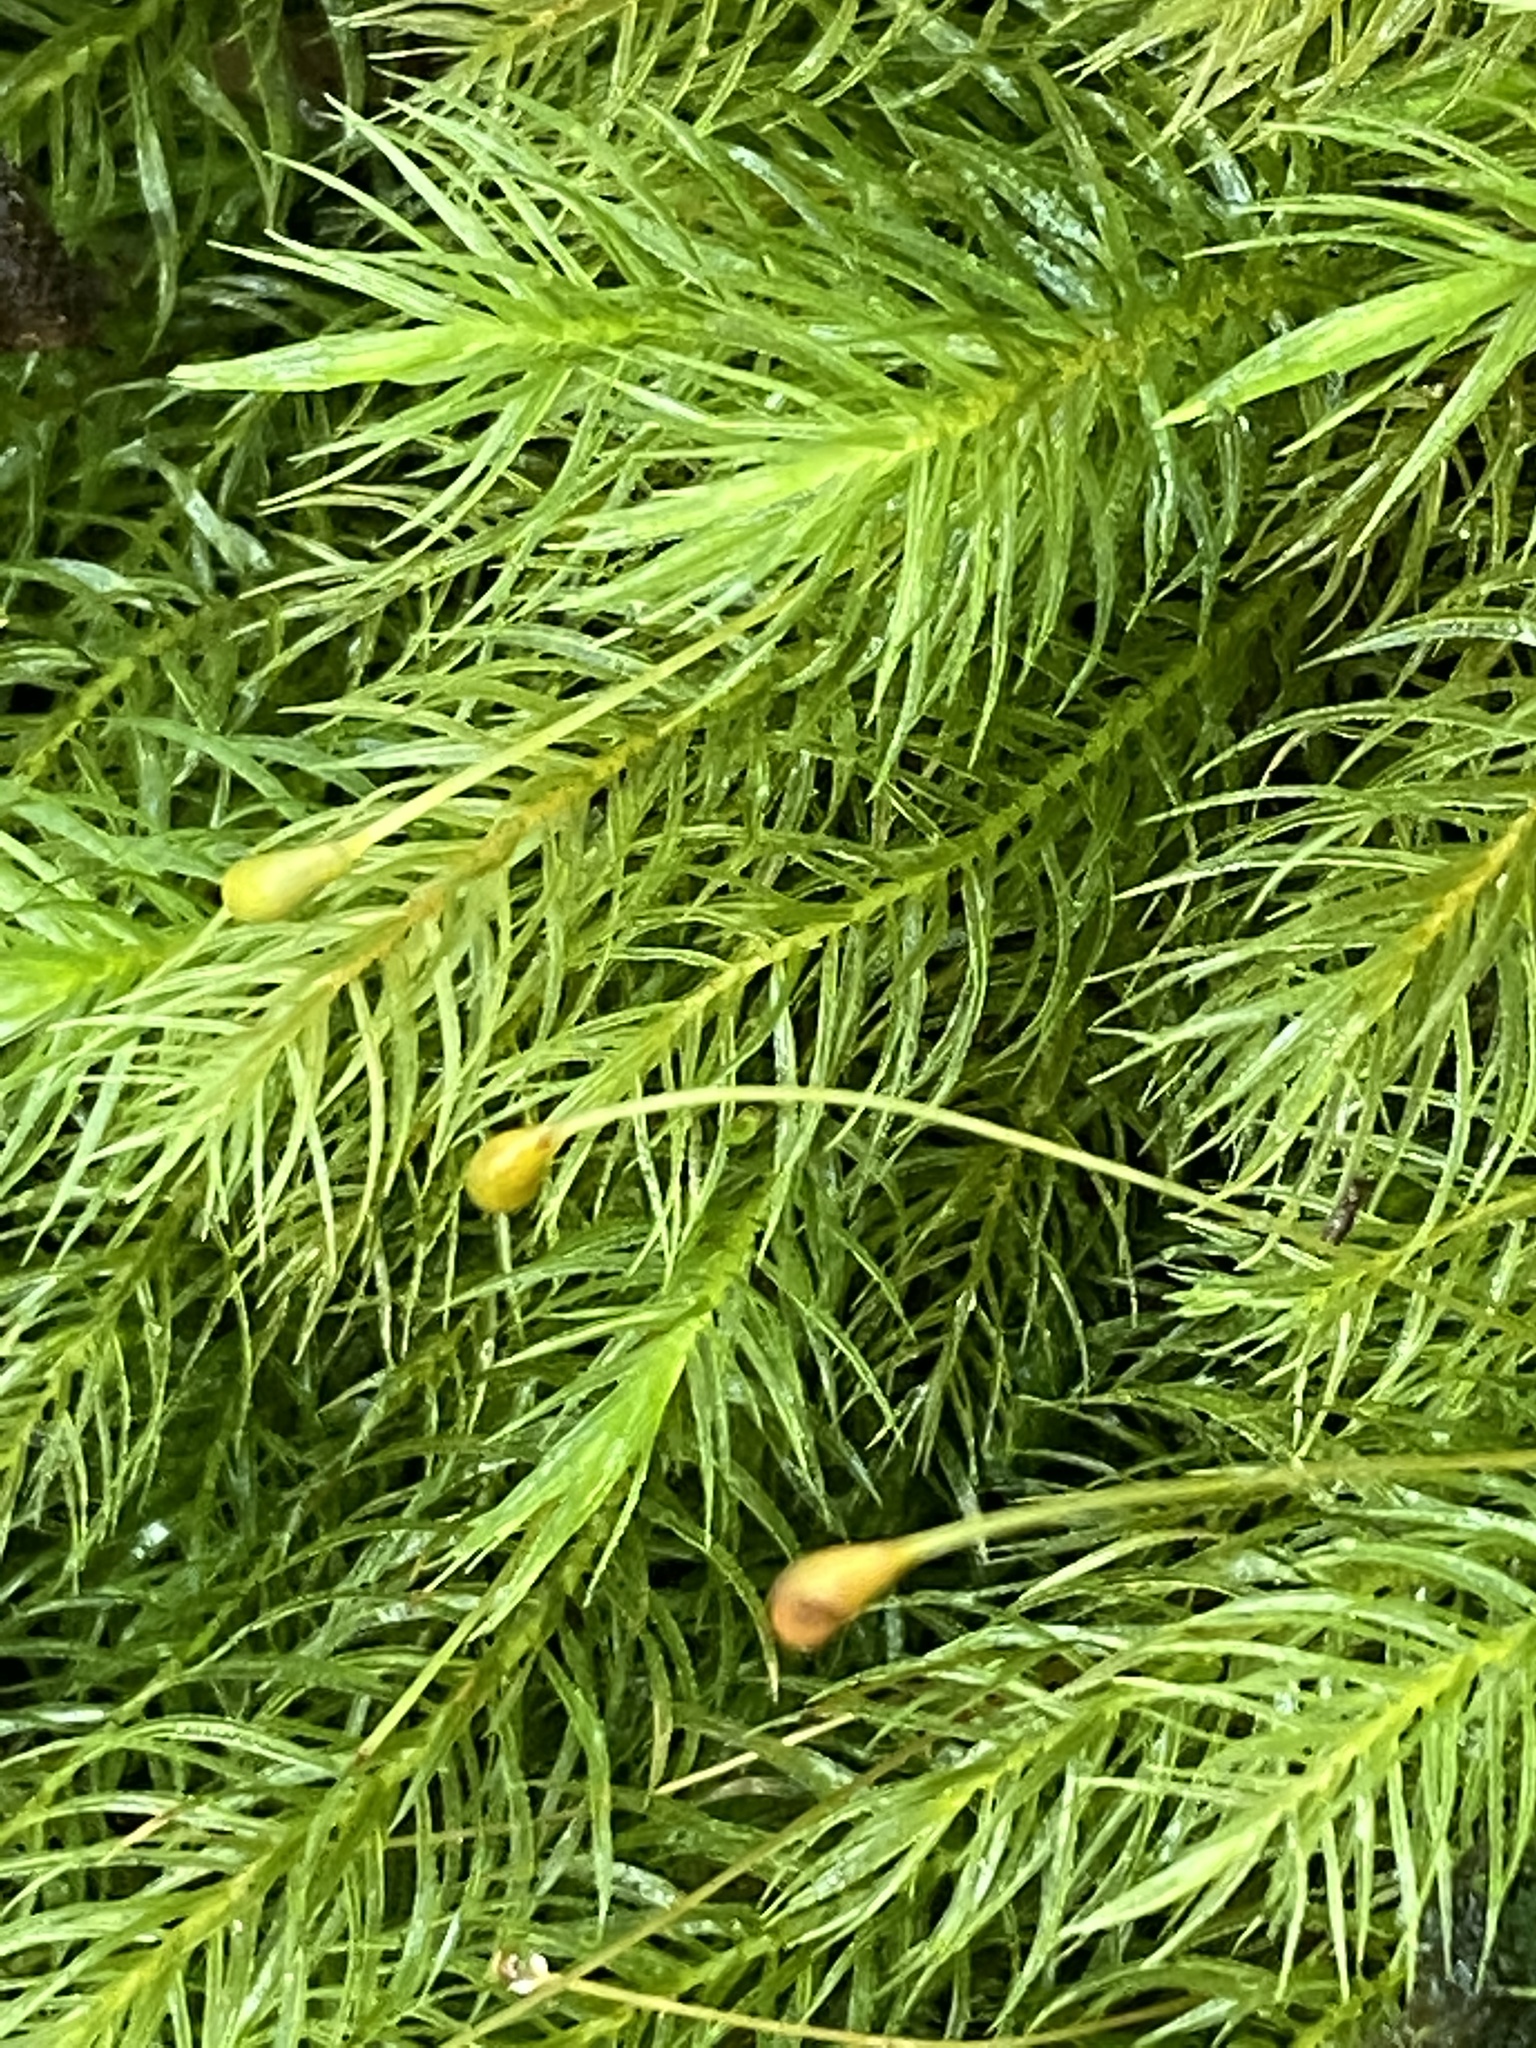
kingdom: Plantae
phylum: Bryophyta
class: Bryopsida
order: Rhizogoniales
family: Calomniaceae
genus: Pyrrhobryum
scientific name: Pyrrhobryum spiniforme
